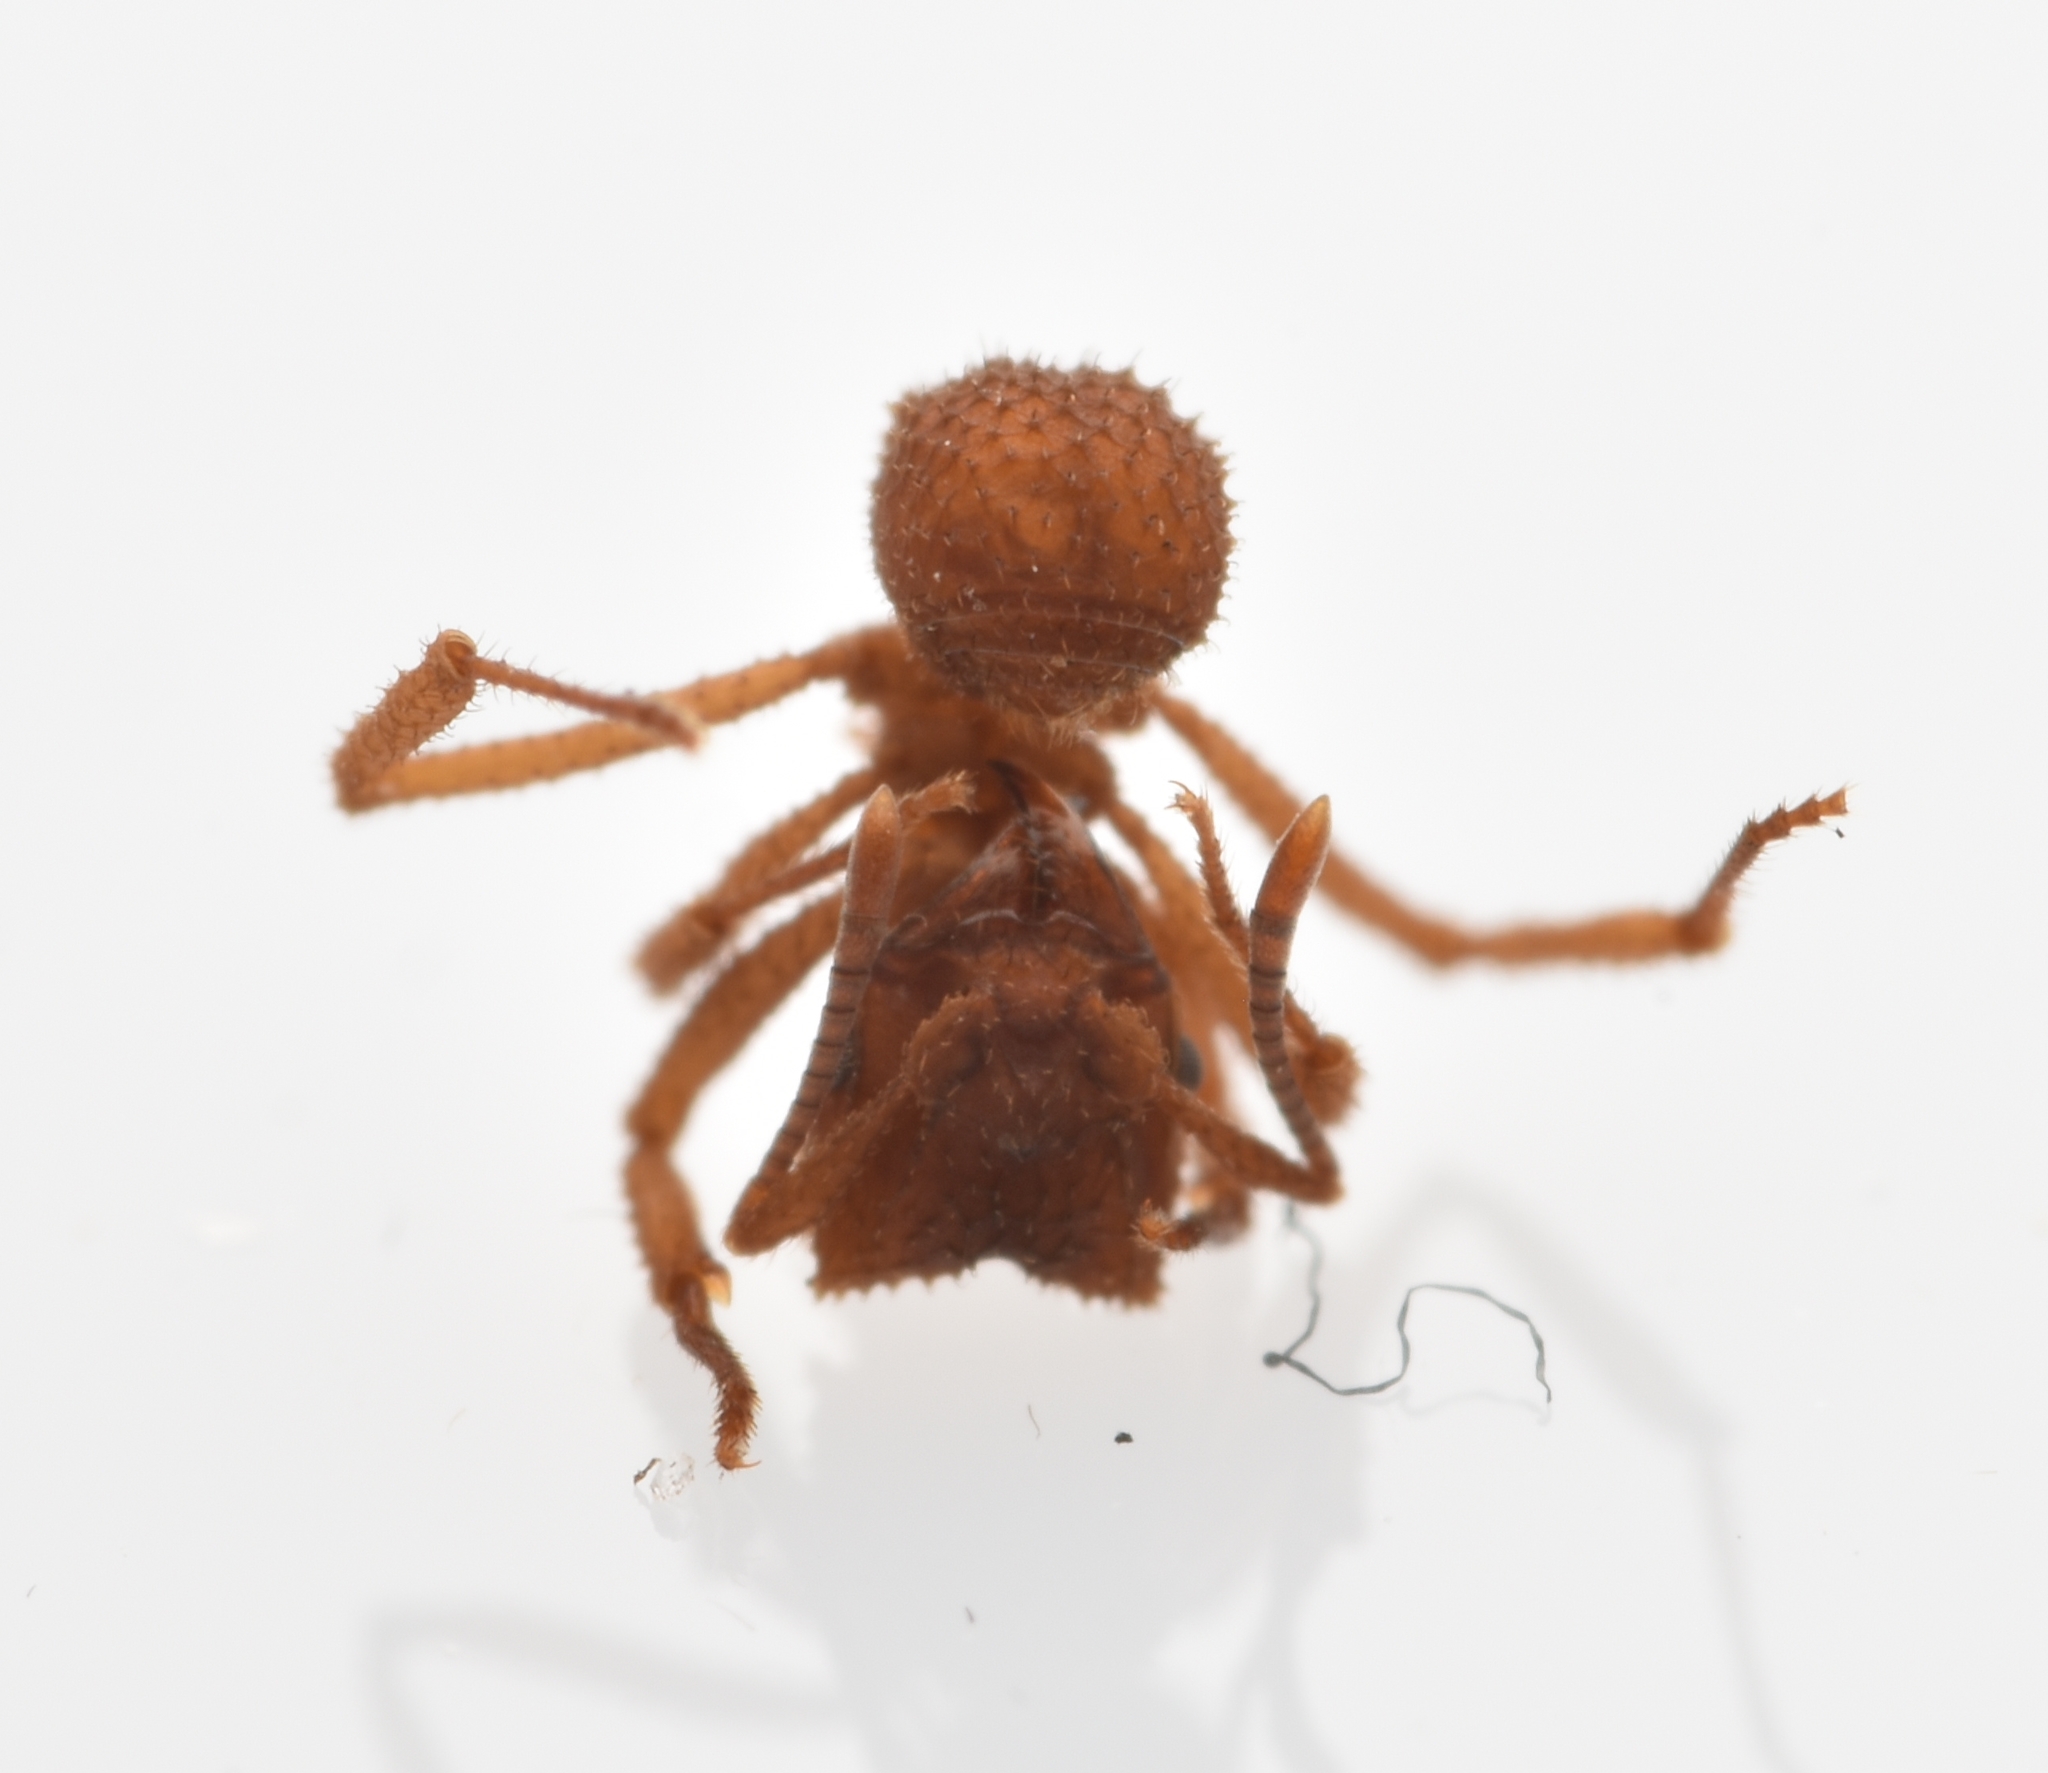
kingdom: Animalia
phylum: Arthropoda
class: Insecta
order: Hymenoptera
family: Formicidae
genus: Mycetomoellerius
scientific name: Mycetomoellerius
